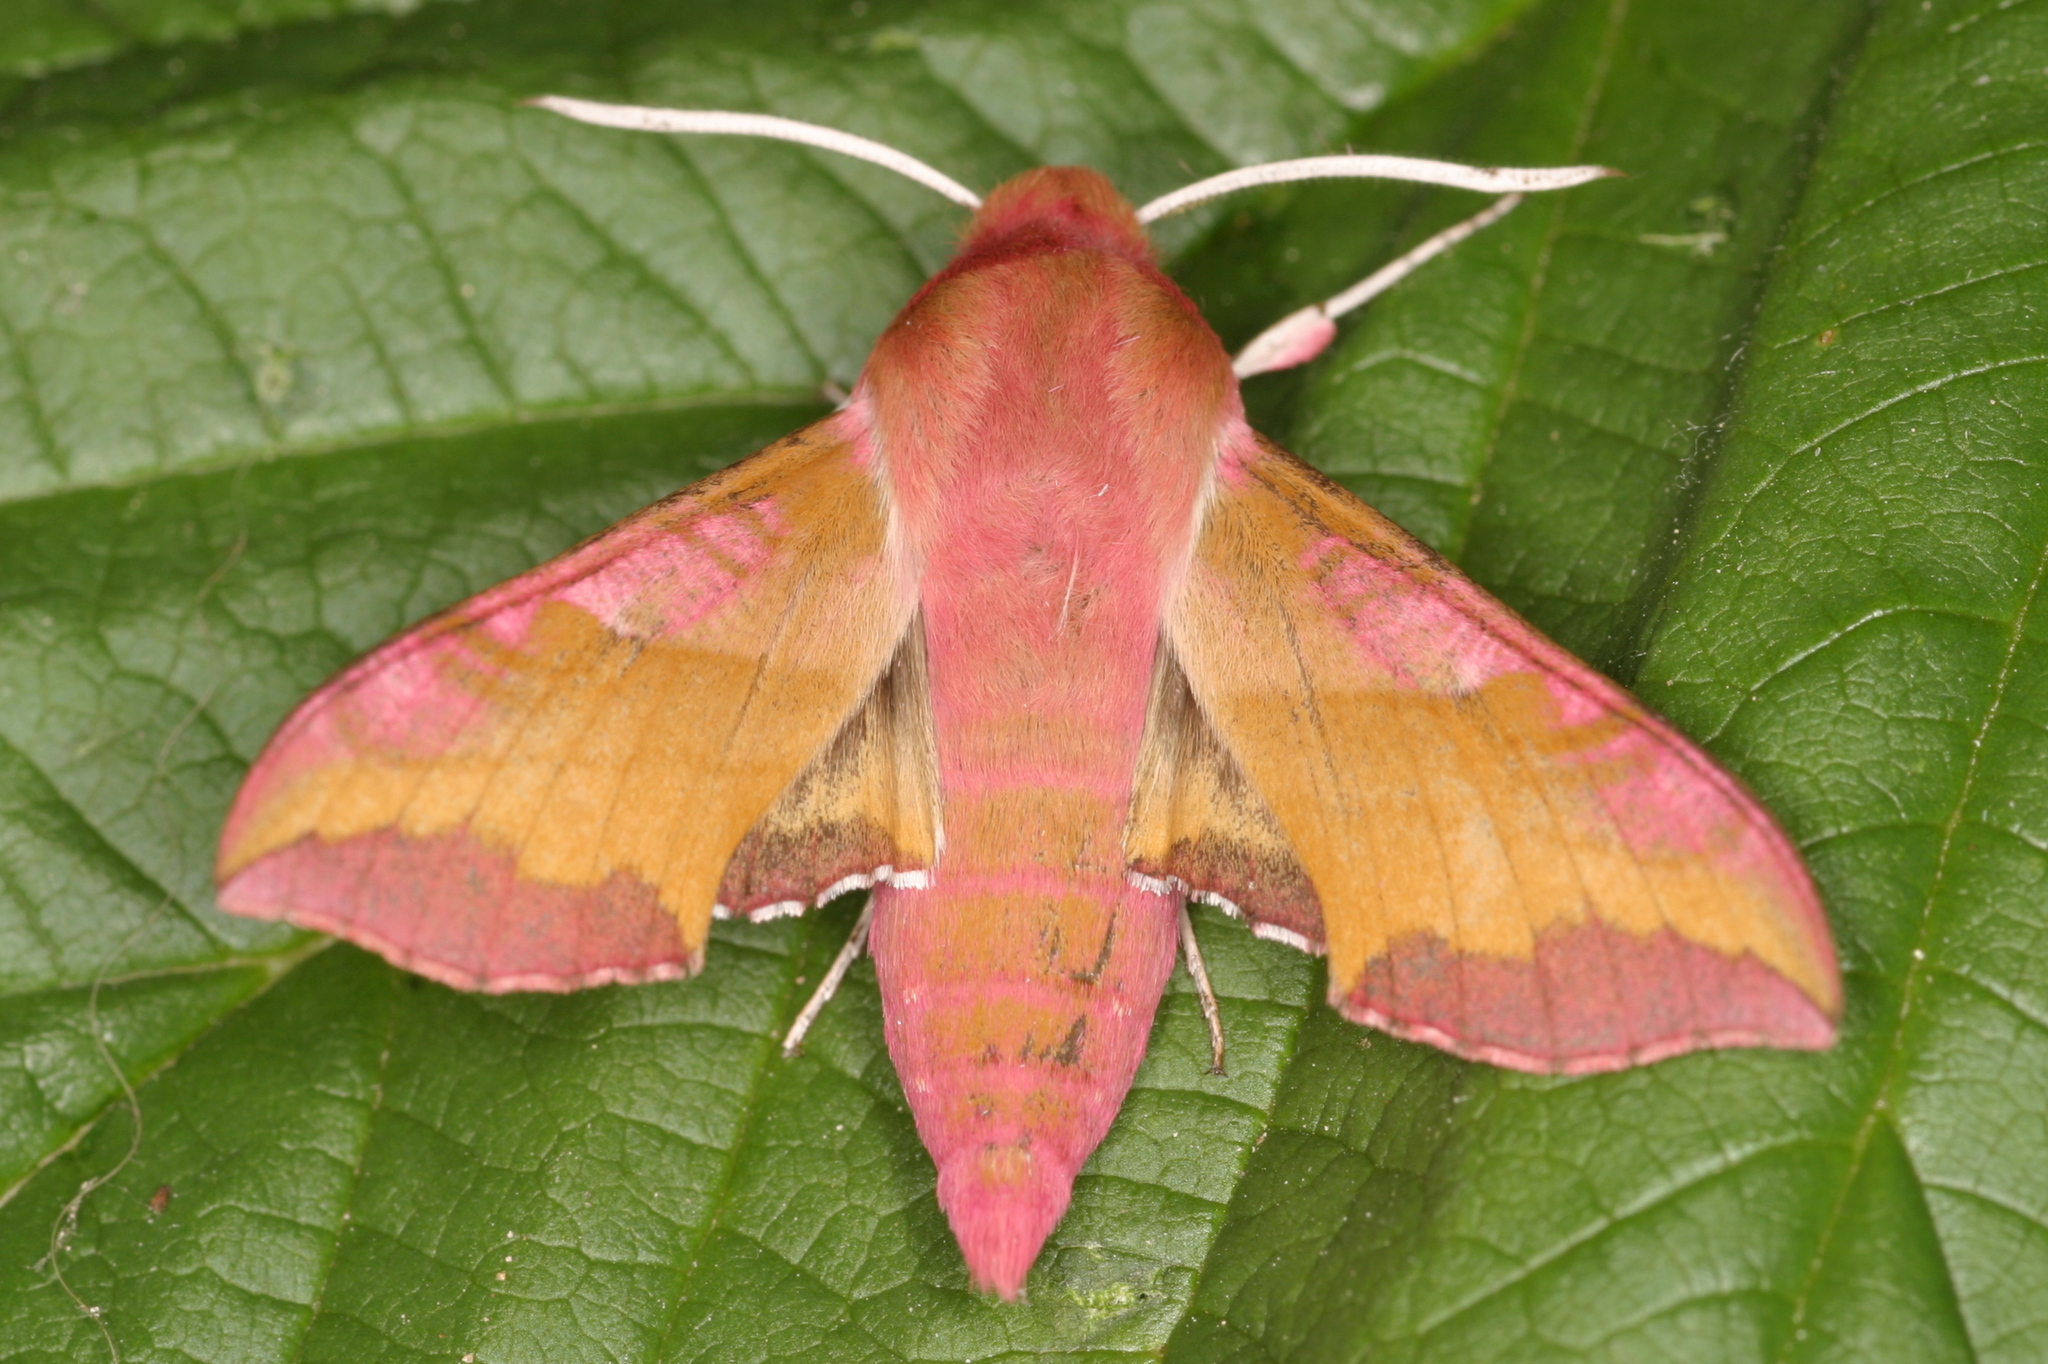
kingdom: Animalia
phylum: Arthropoda
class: Insecta
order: Lepidoptera
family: Sphingidae
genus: Deilephila
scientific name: Deilephila porcellus
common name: Small elephant hawk-moth
